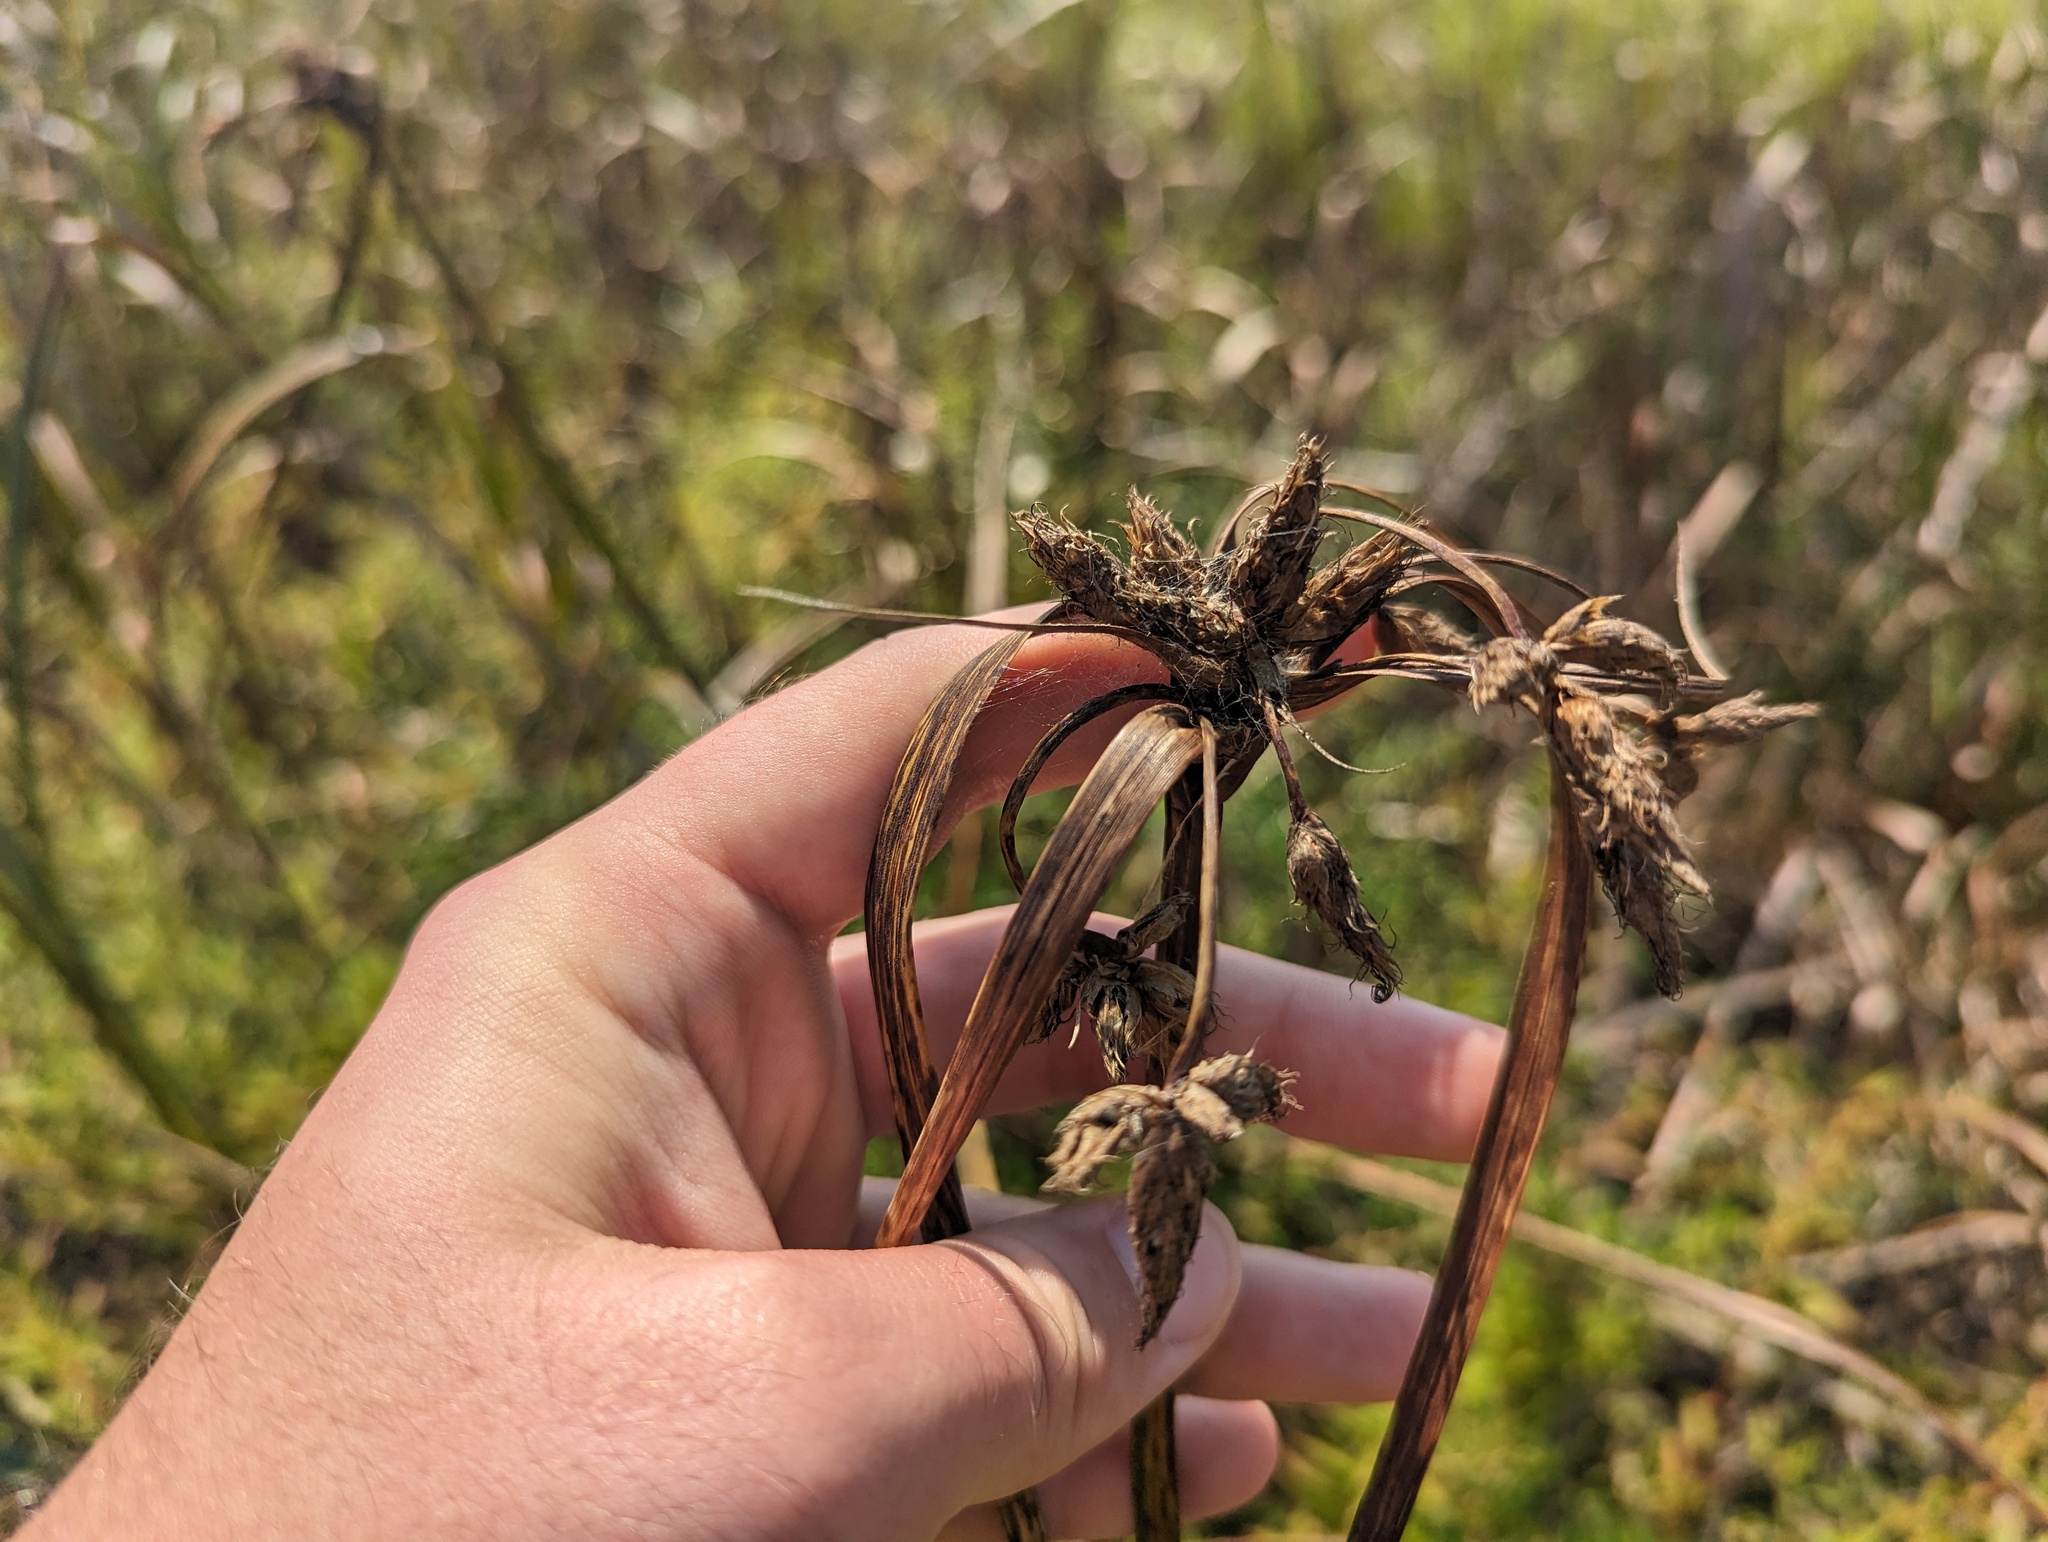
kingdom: Plantae
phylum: Tracheophyta
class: Liliopsida
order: Poales
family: Cyperaceae
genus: Bolboschoenus
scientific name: Bolboschoenus fluviatilis
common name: River bulrush
